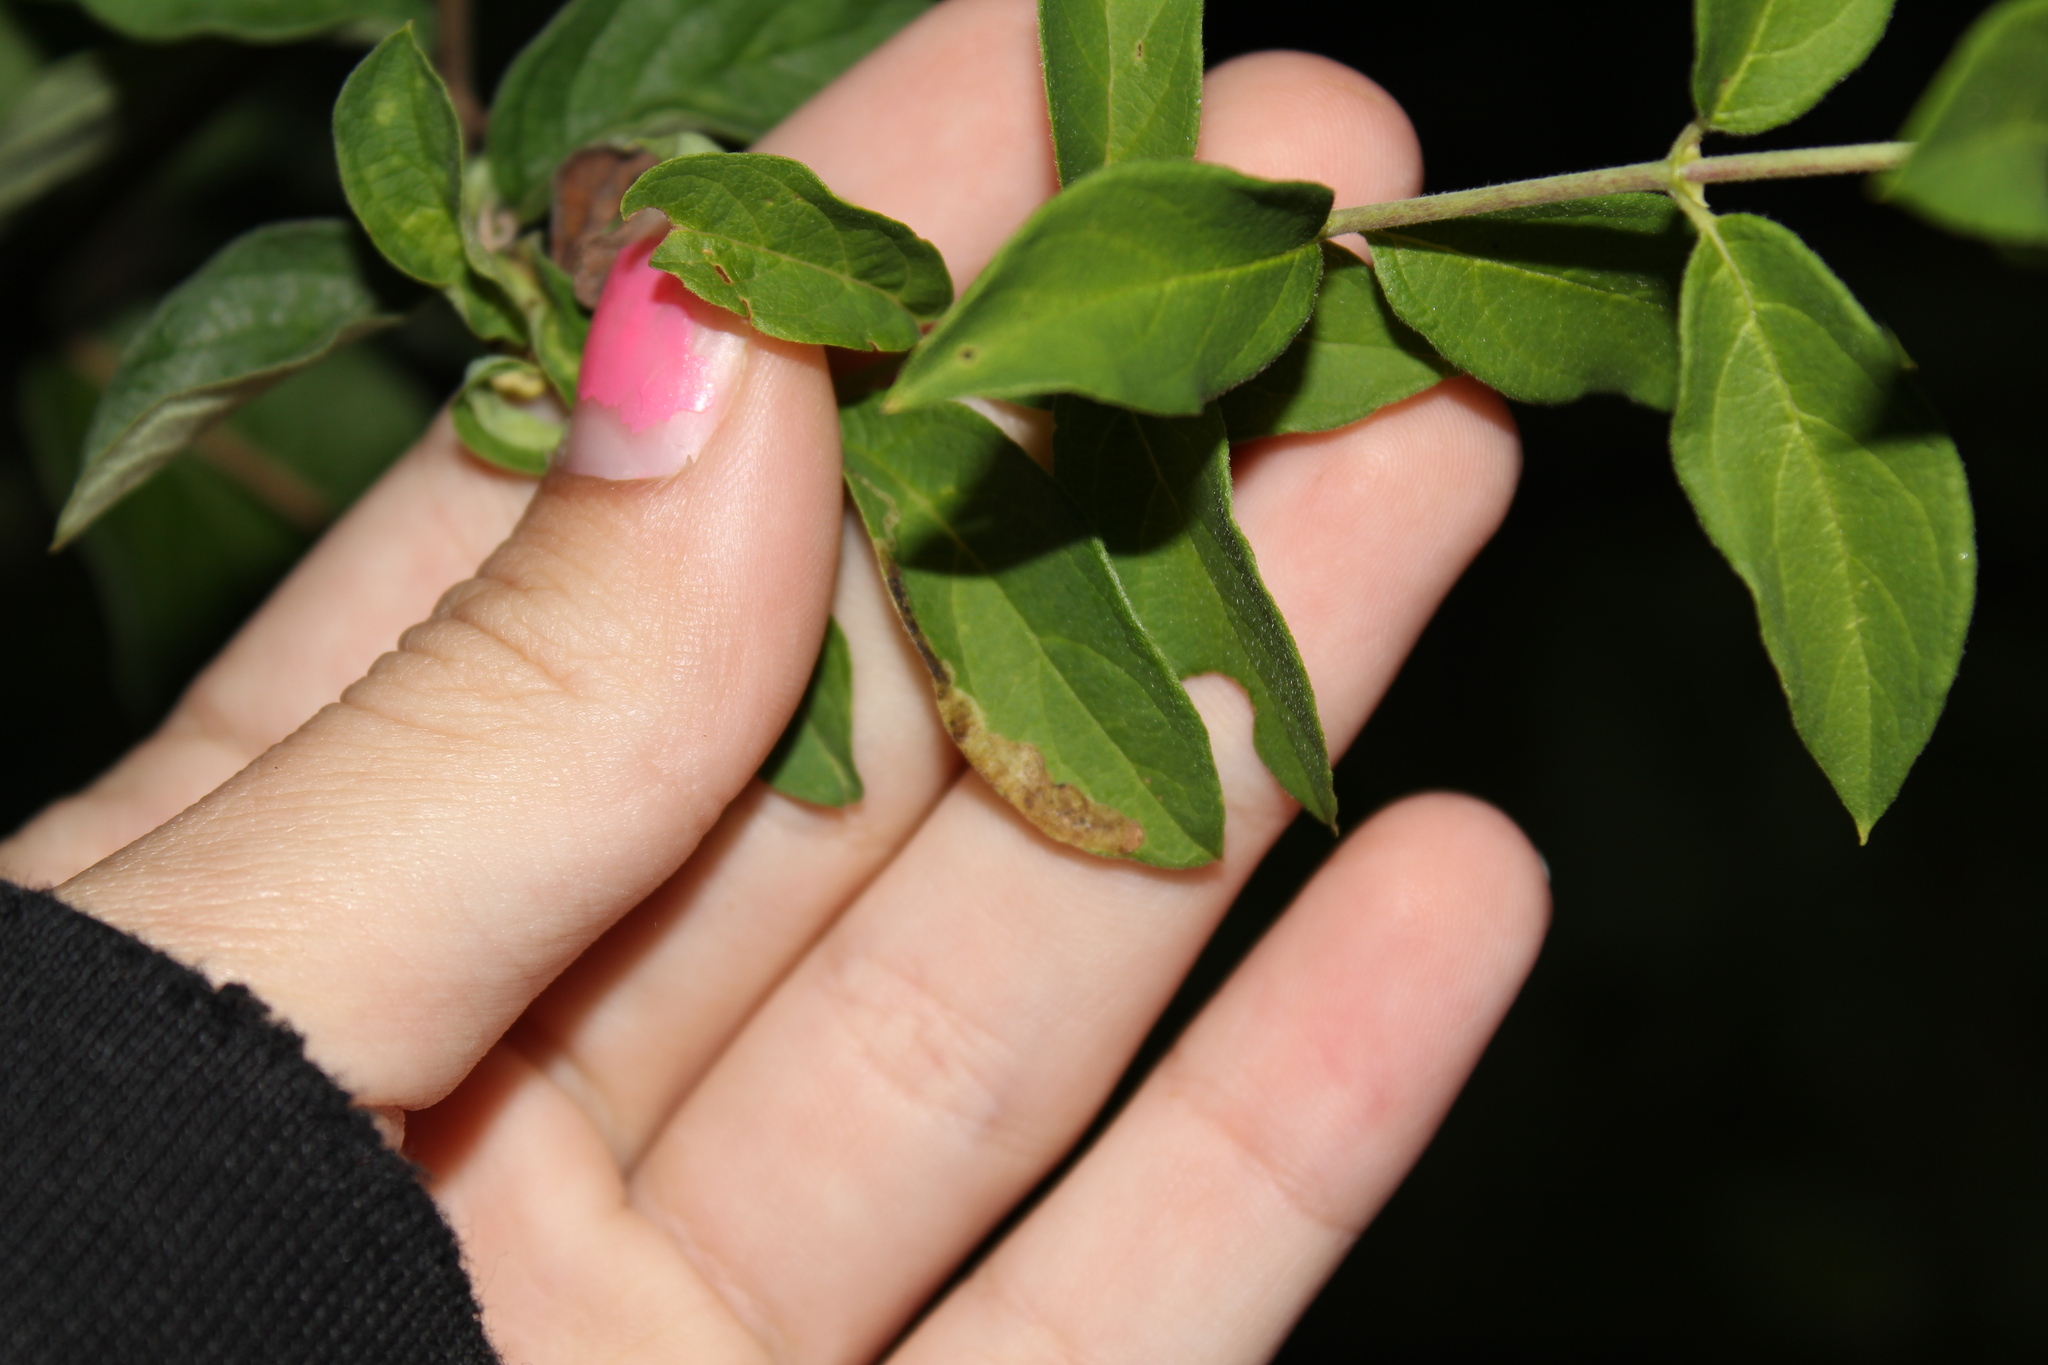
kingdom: Animalia
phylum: Arthropoda
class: Insecta
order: Diptera
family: Agromyzidae
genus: Aulagromyza
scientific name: Aulagromyza luteoscutellata
